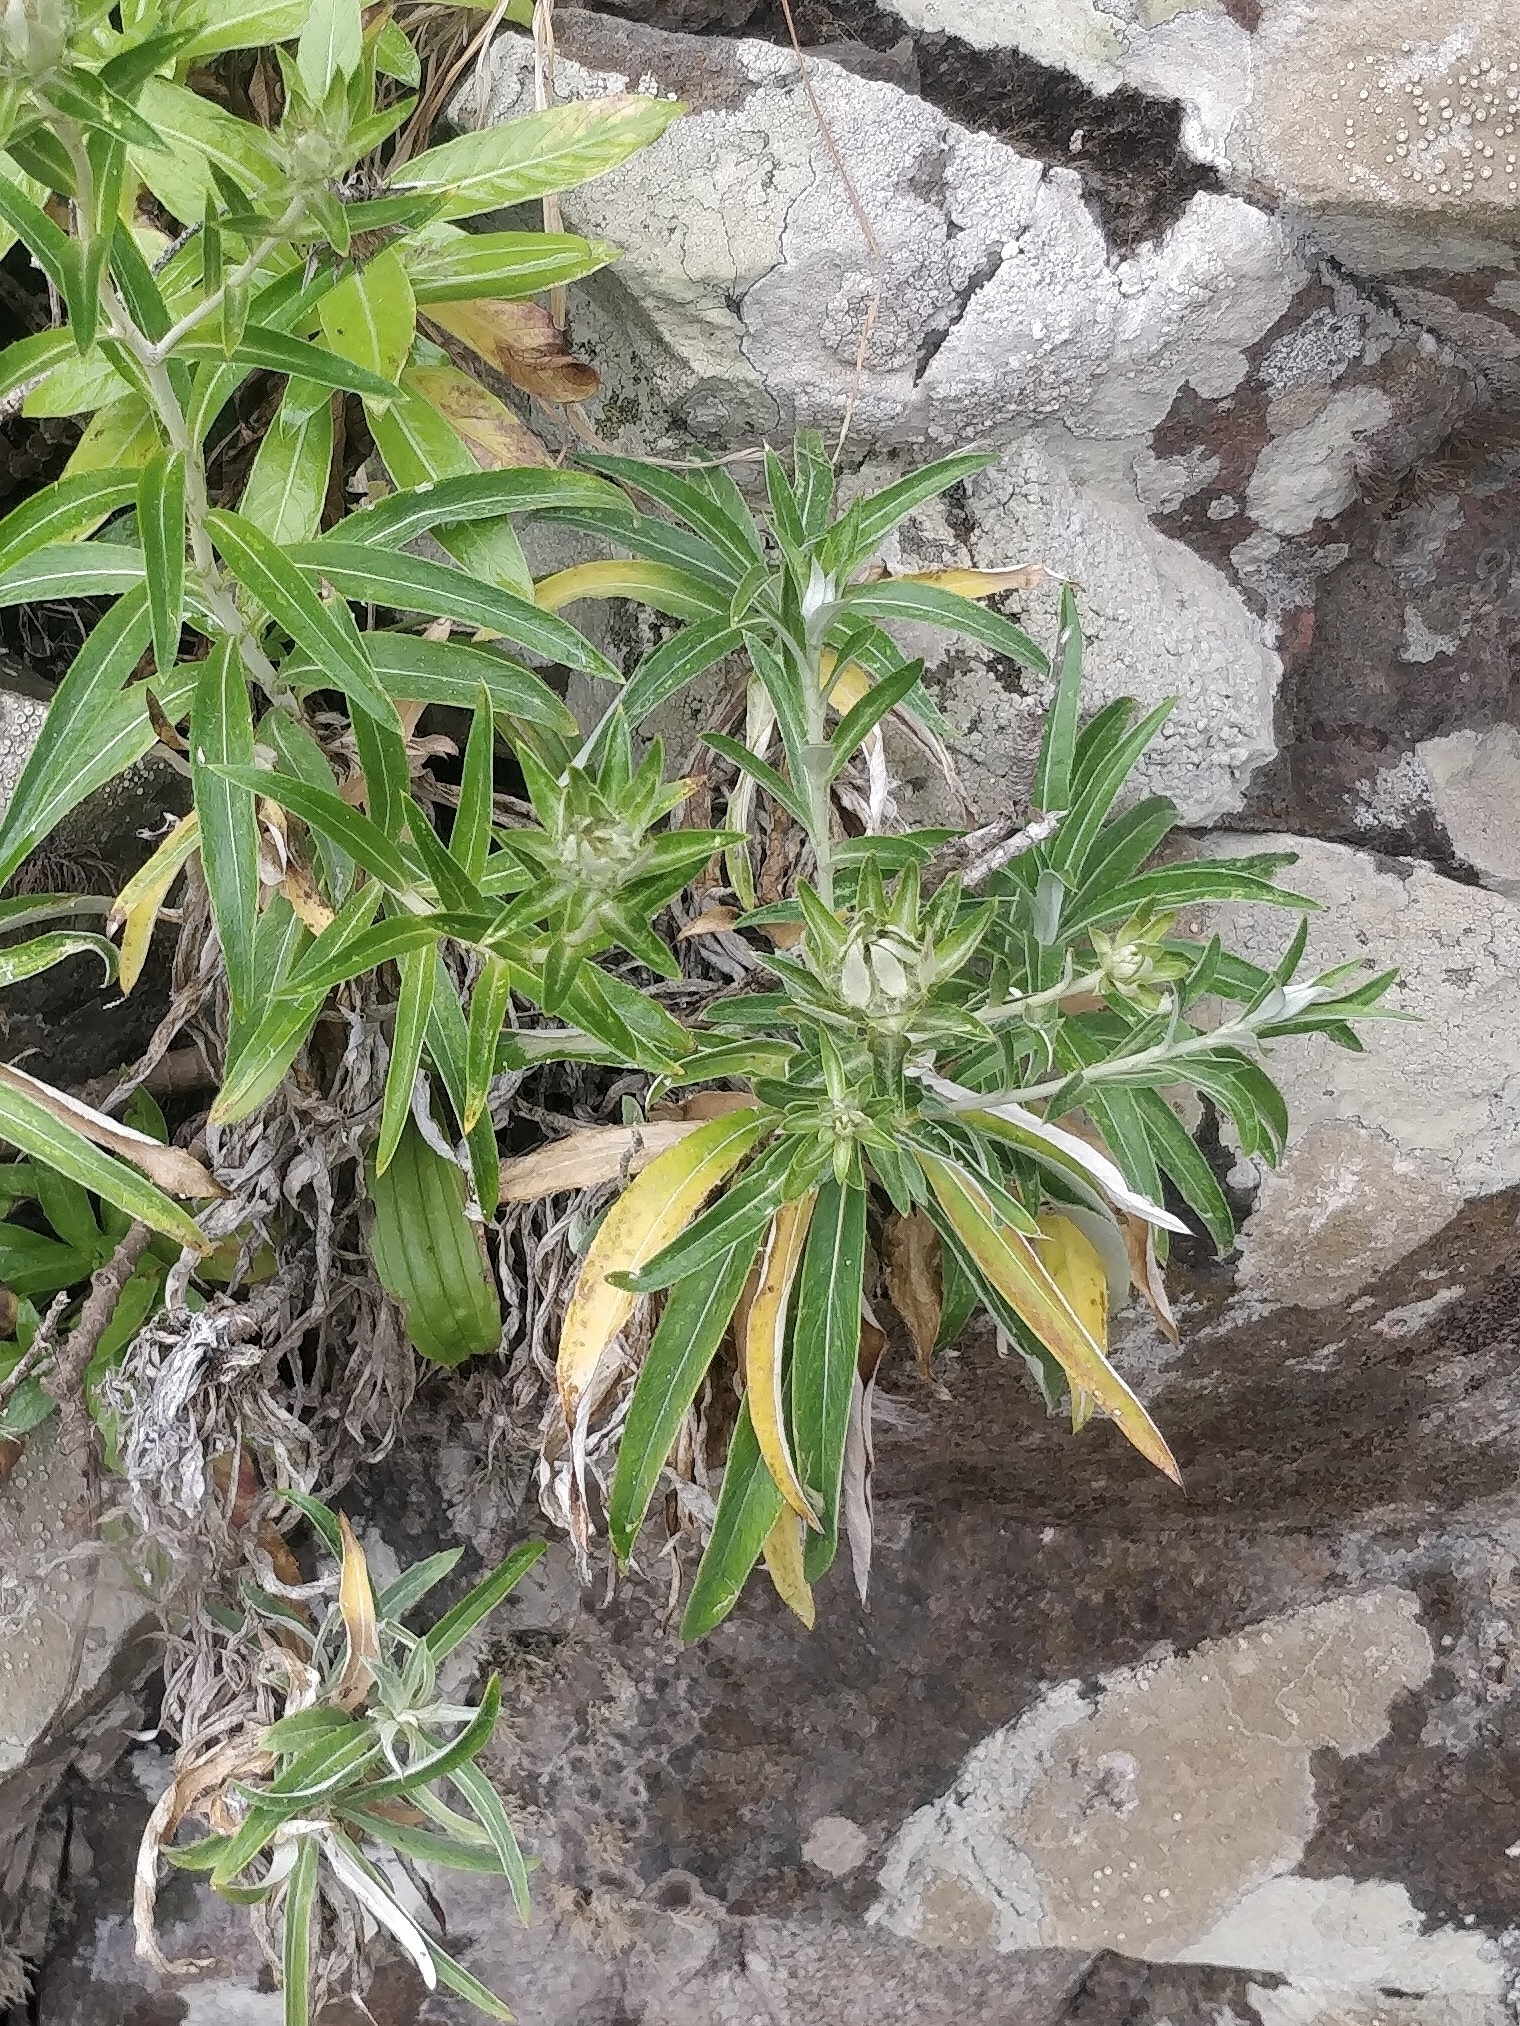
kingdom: Plantae
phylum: Tracheophyta
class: Magnoliopsida
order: Asterales
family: Asteraceae
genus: Carlina
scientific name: Carlina salicifolia
